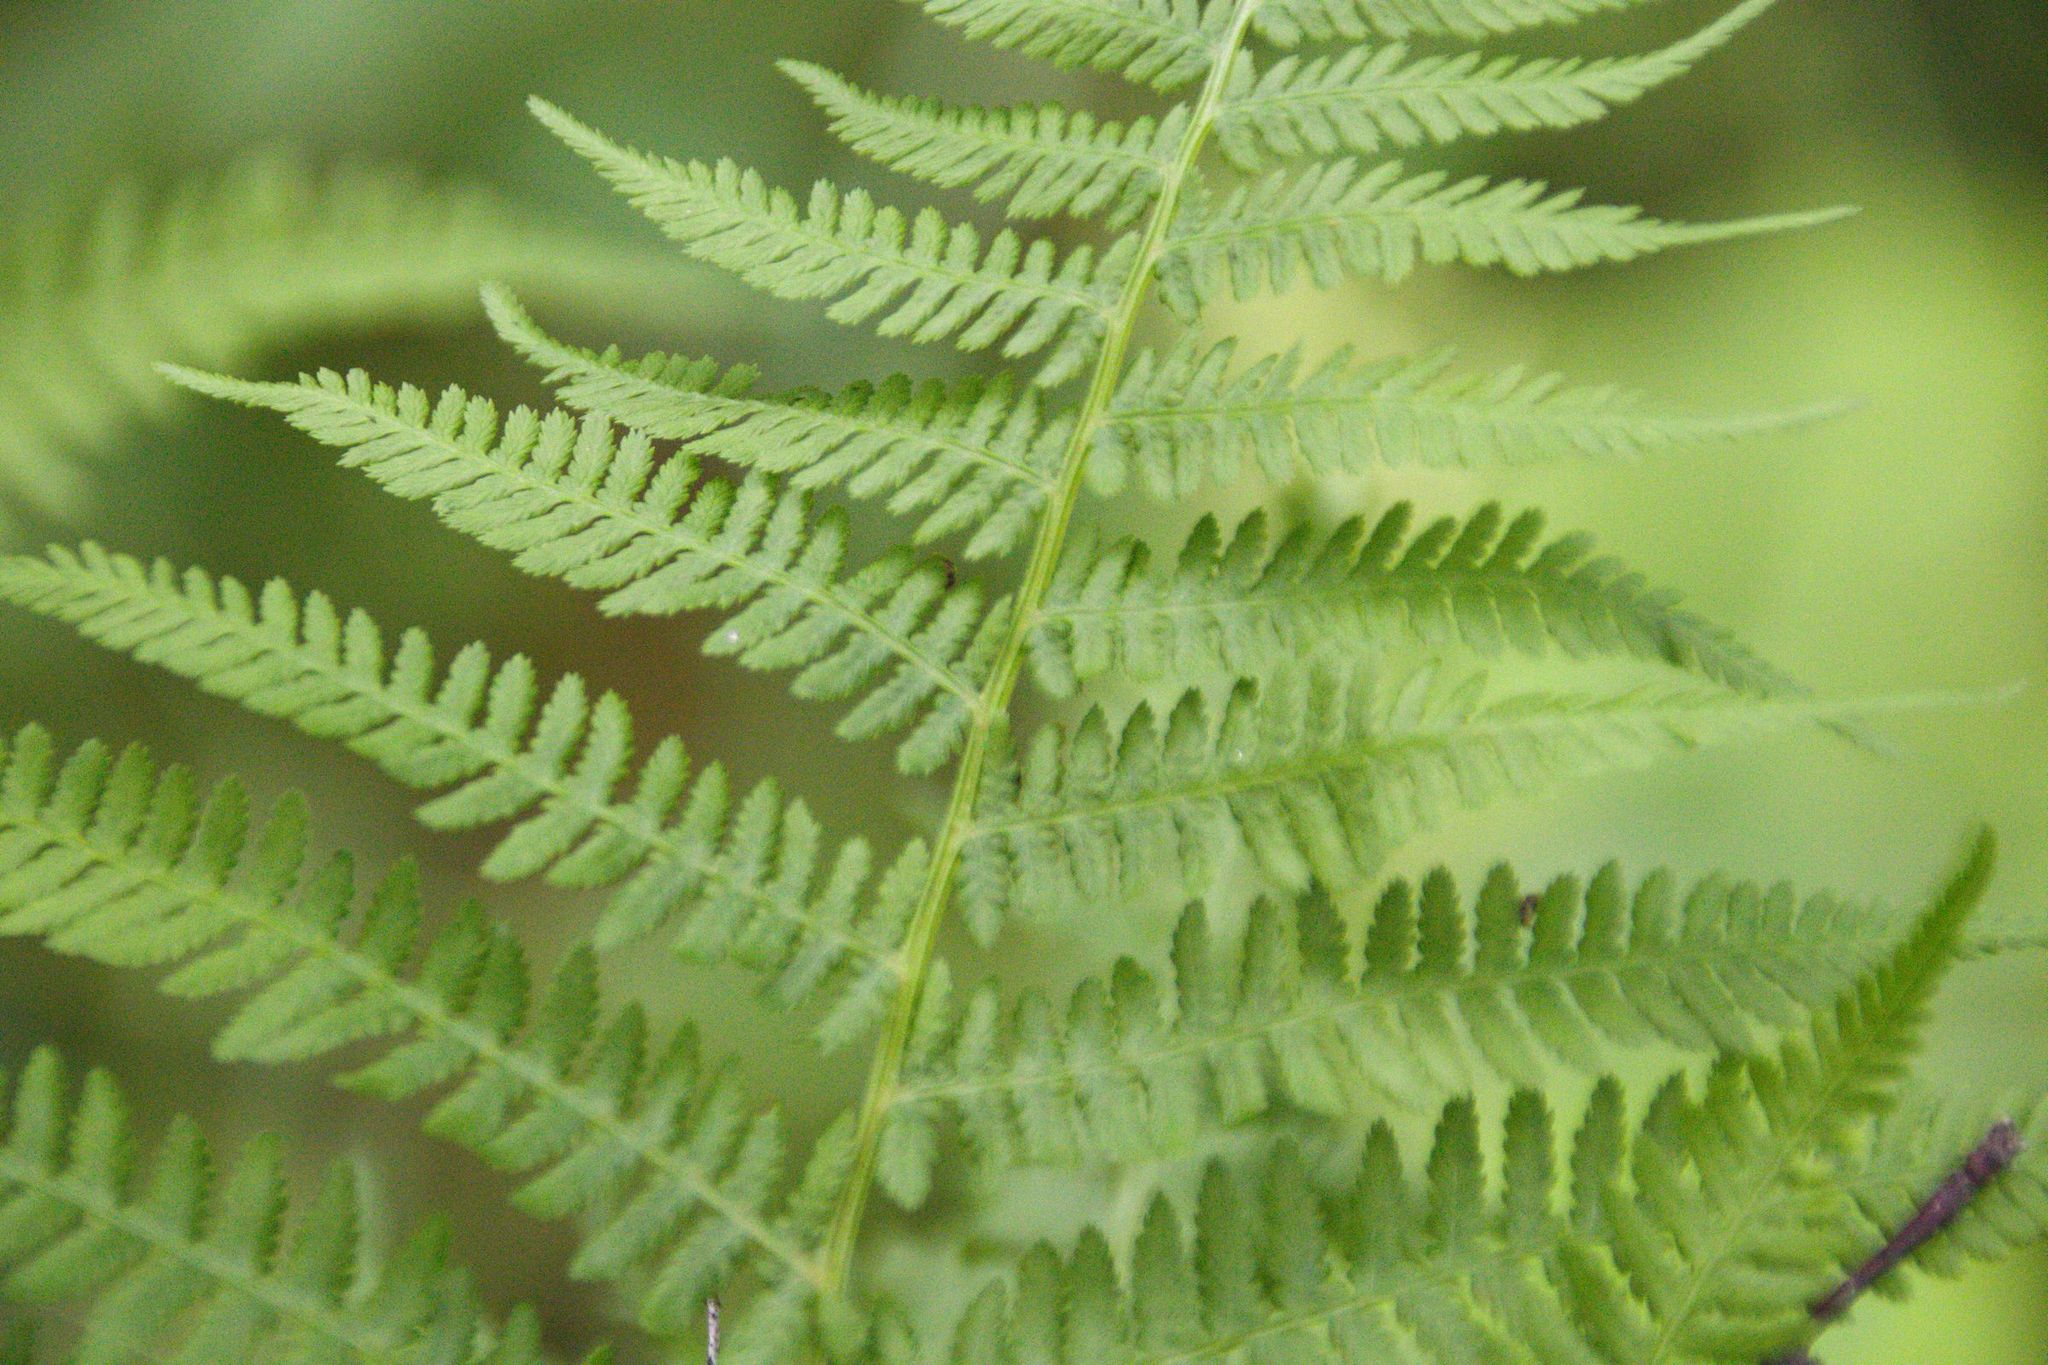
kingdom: Plantae
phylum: Tracheophyta
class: Polypodiopsida
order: Polypodiales
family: Athyriaceae
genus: Athyrium
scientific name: Athyrium filix-femina
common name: Lady fern
